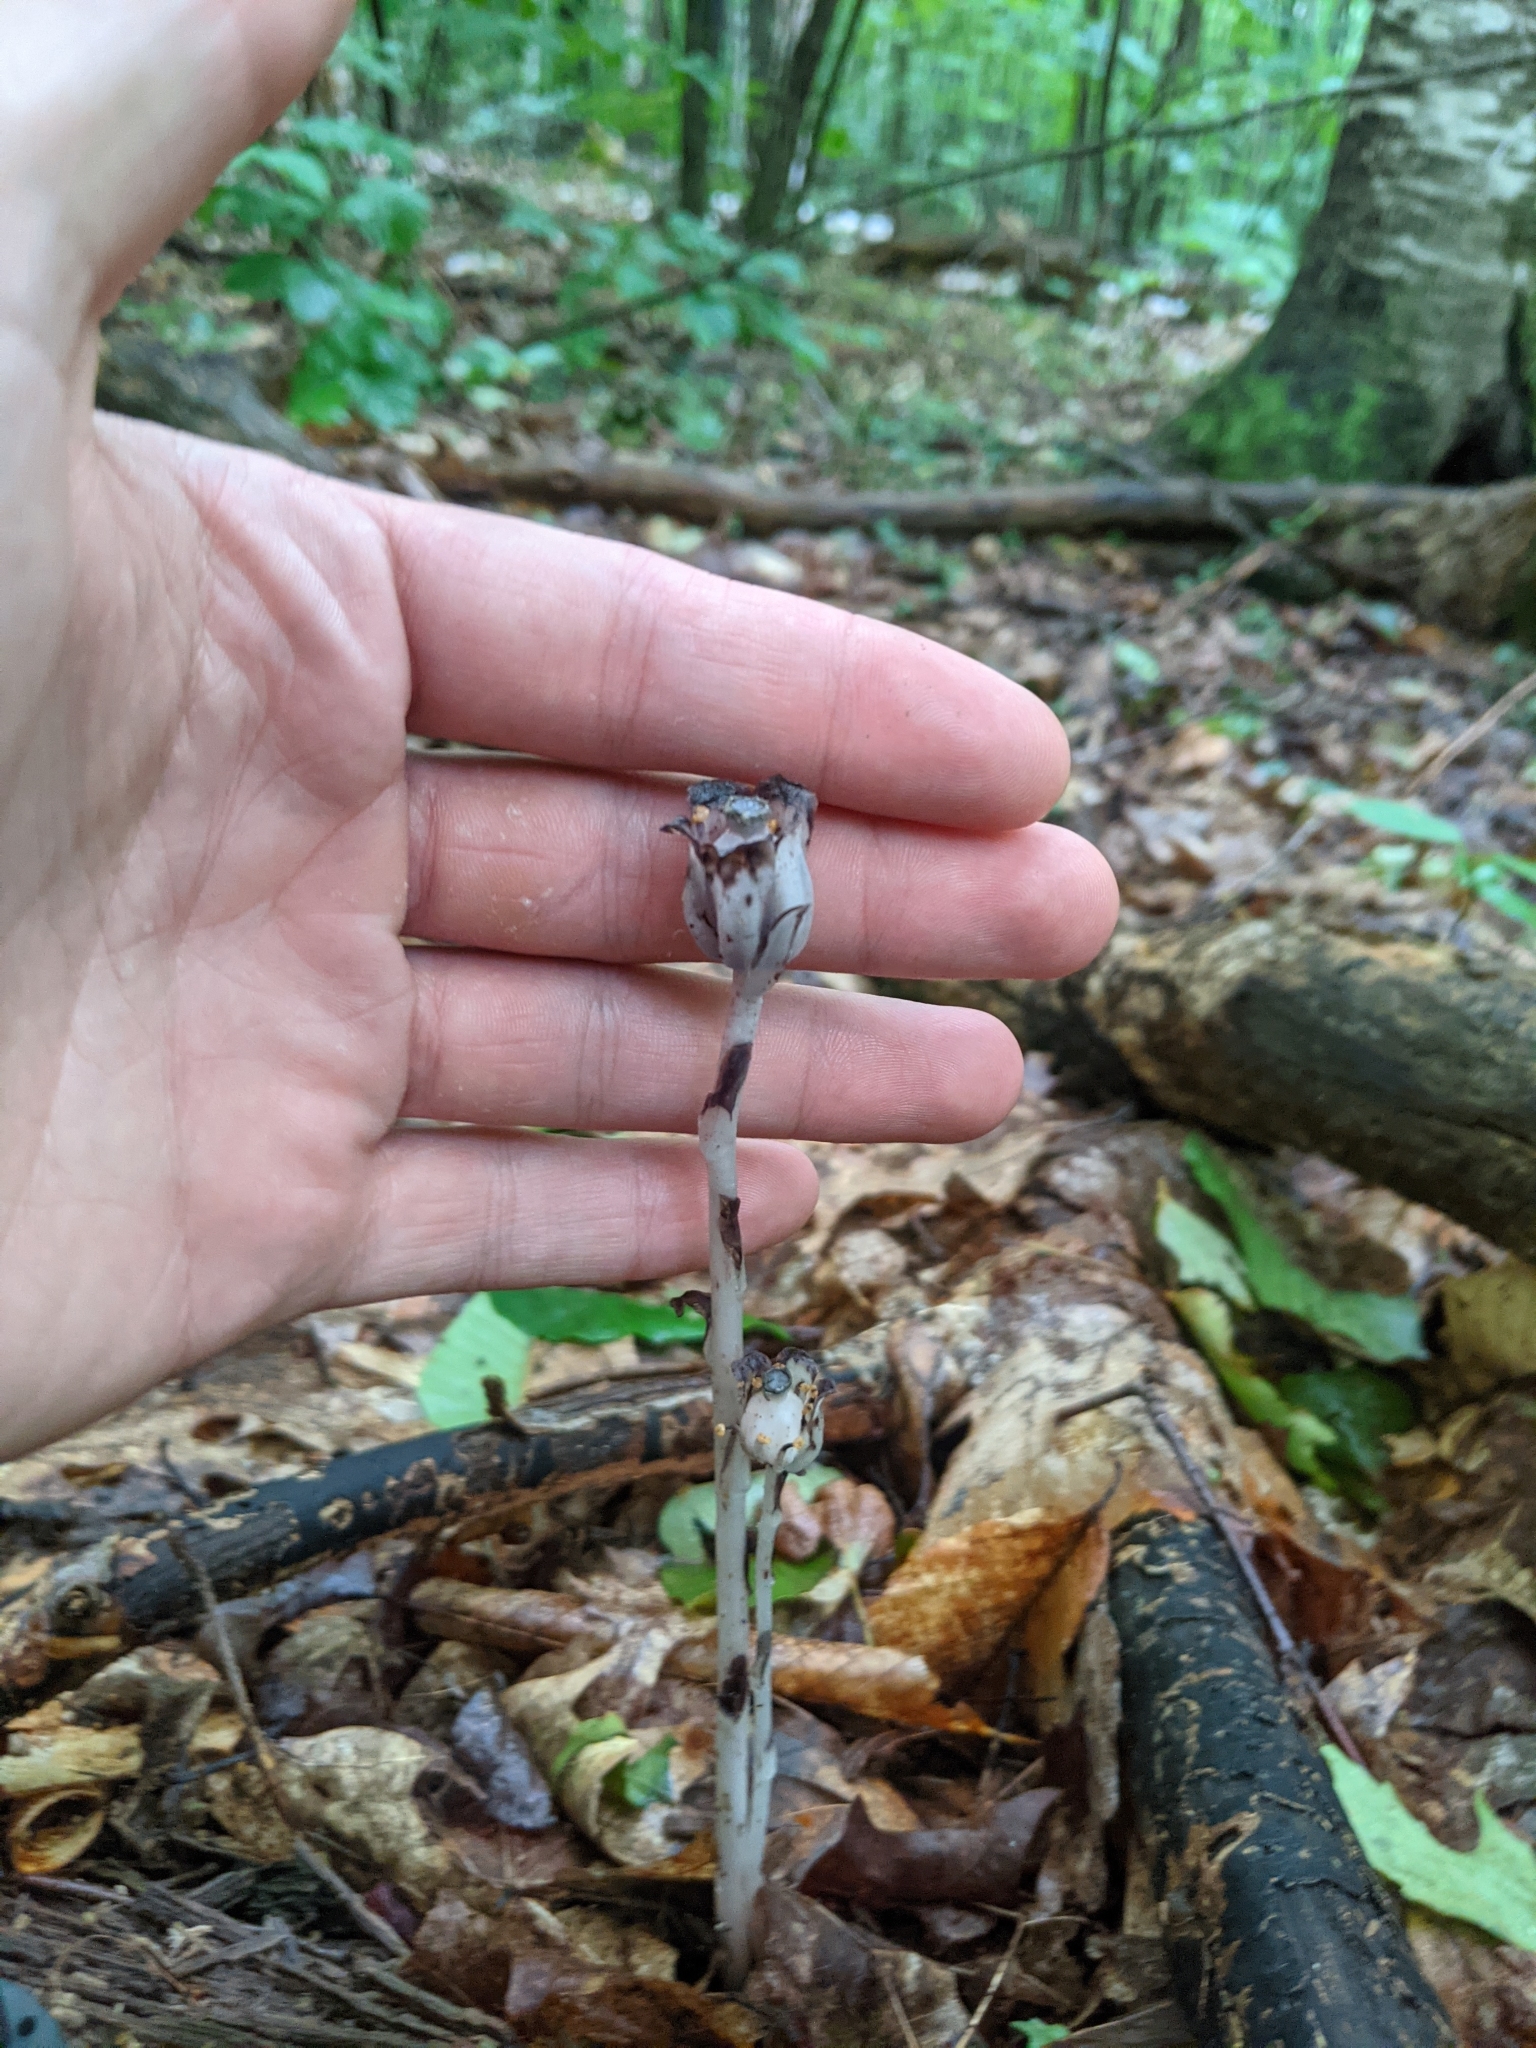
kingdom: Plantae
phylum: Tracheophyta
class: Magnoliopsida
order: Ericales
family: Ericaceae
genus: Monotropa
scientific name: Monotropa uniflora
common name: Convulsion root
